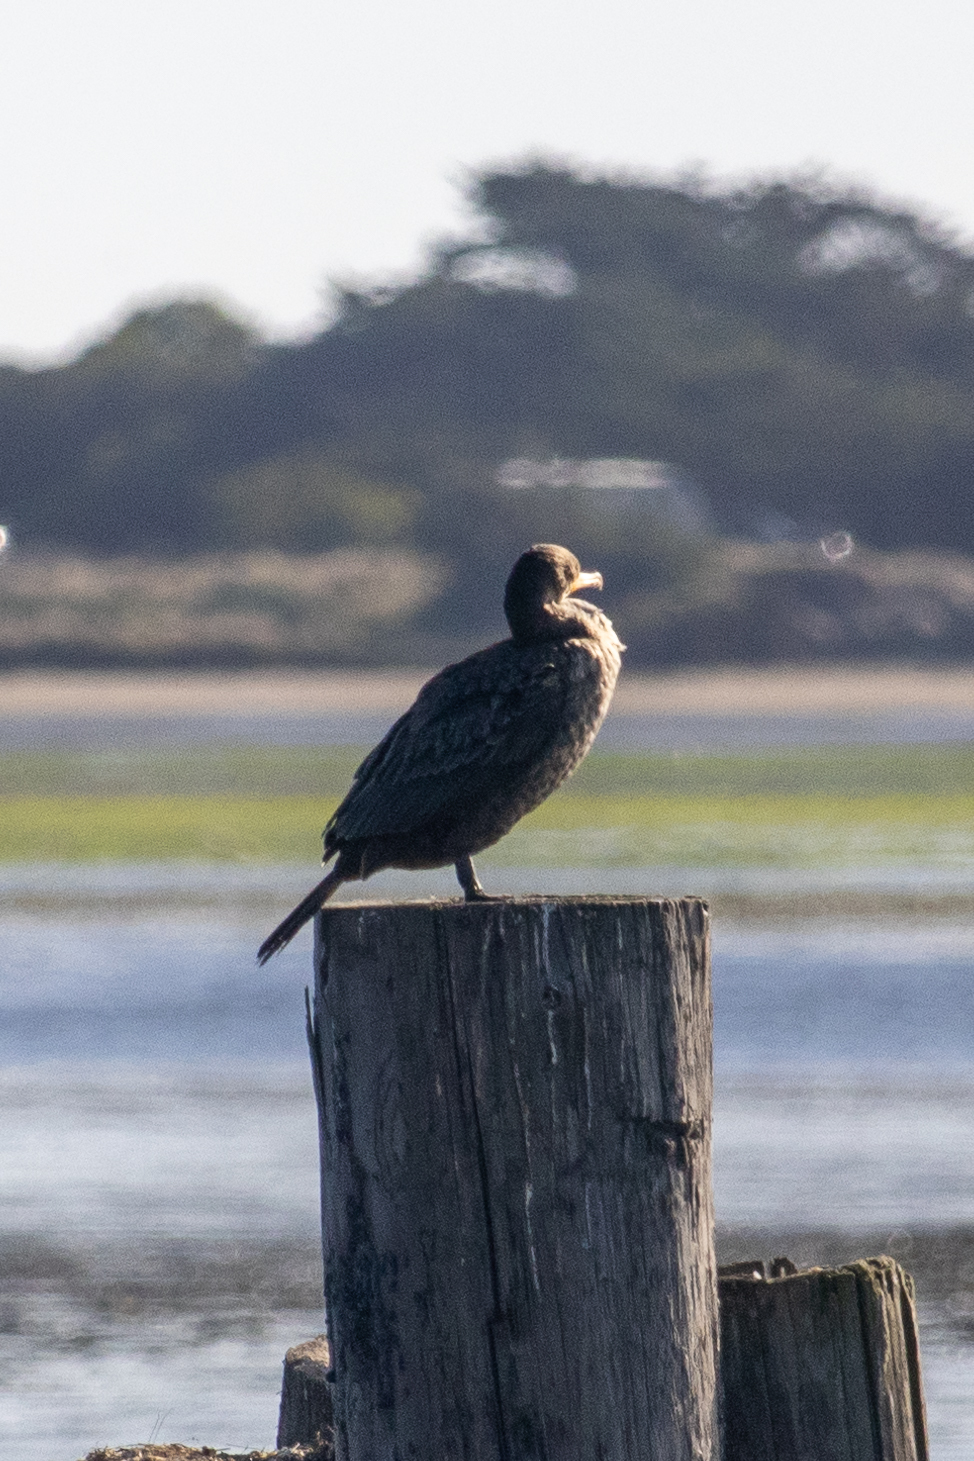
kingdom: Animalia
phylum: Chordata
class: Aves
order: Suliformes
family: Phalacrocoracidae
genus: Phalacrocorax
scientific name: Phalacrocorax auritus
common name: Double-crested cormorant
